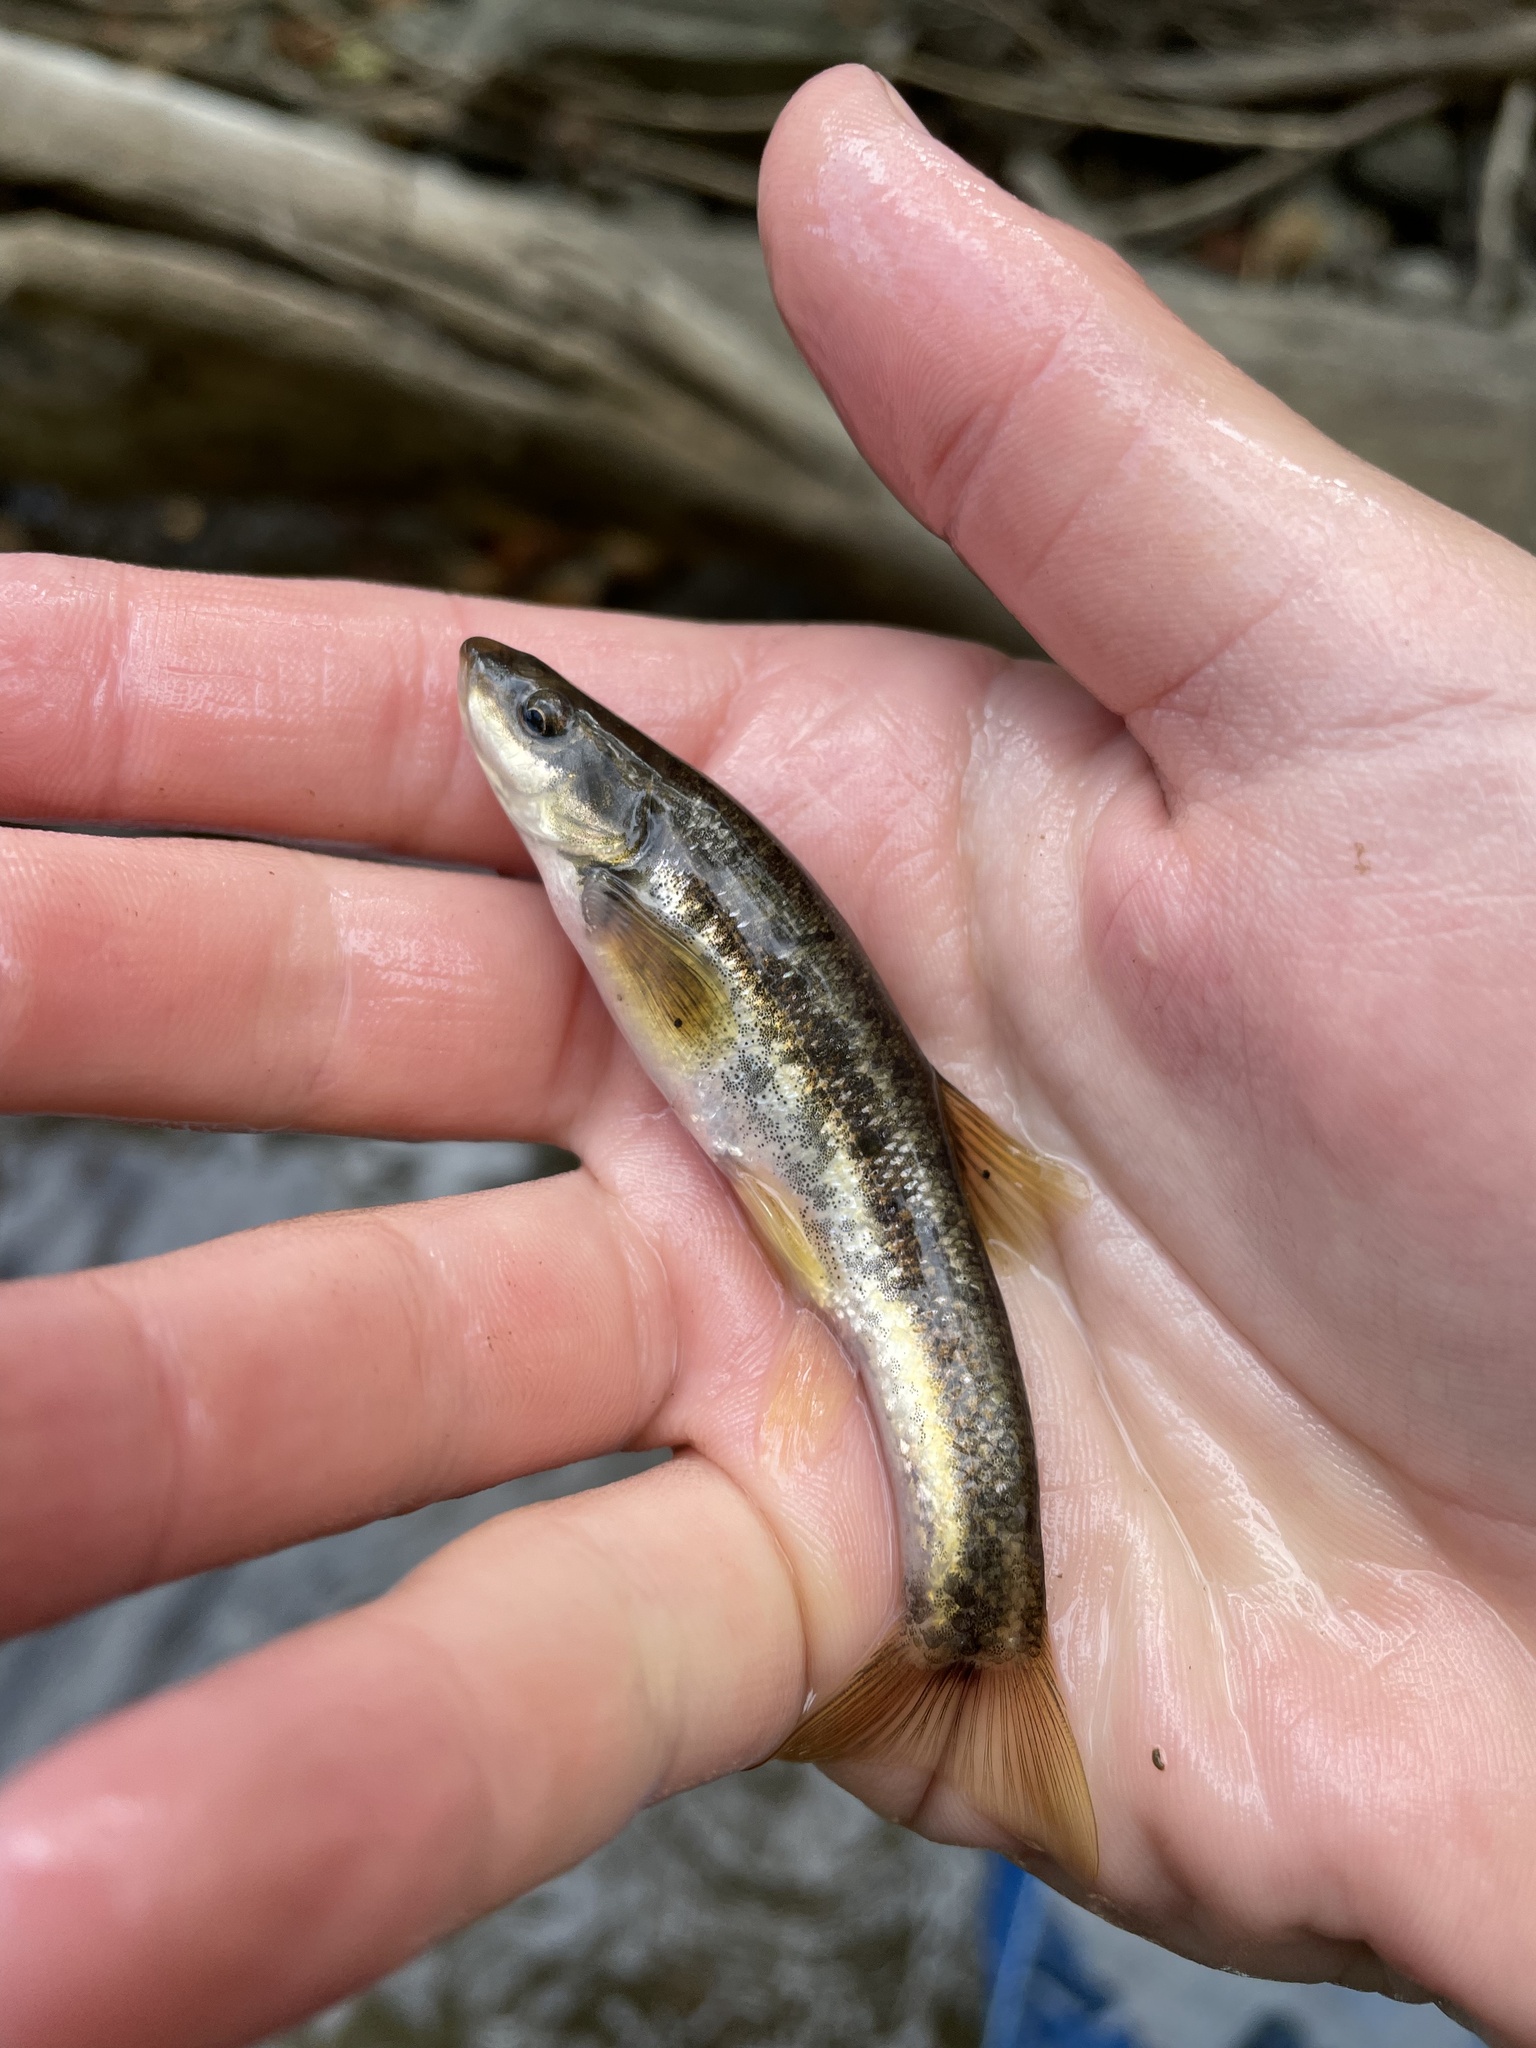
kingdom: Animalia
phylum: Platyhelminthes
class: Trematoda
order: Diplostomida
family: Diplostomidae
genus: Neascus
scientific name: Neascus
